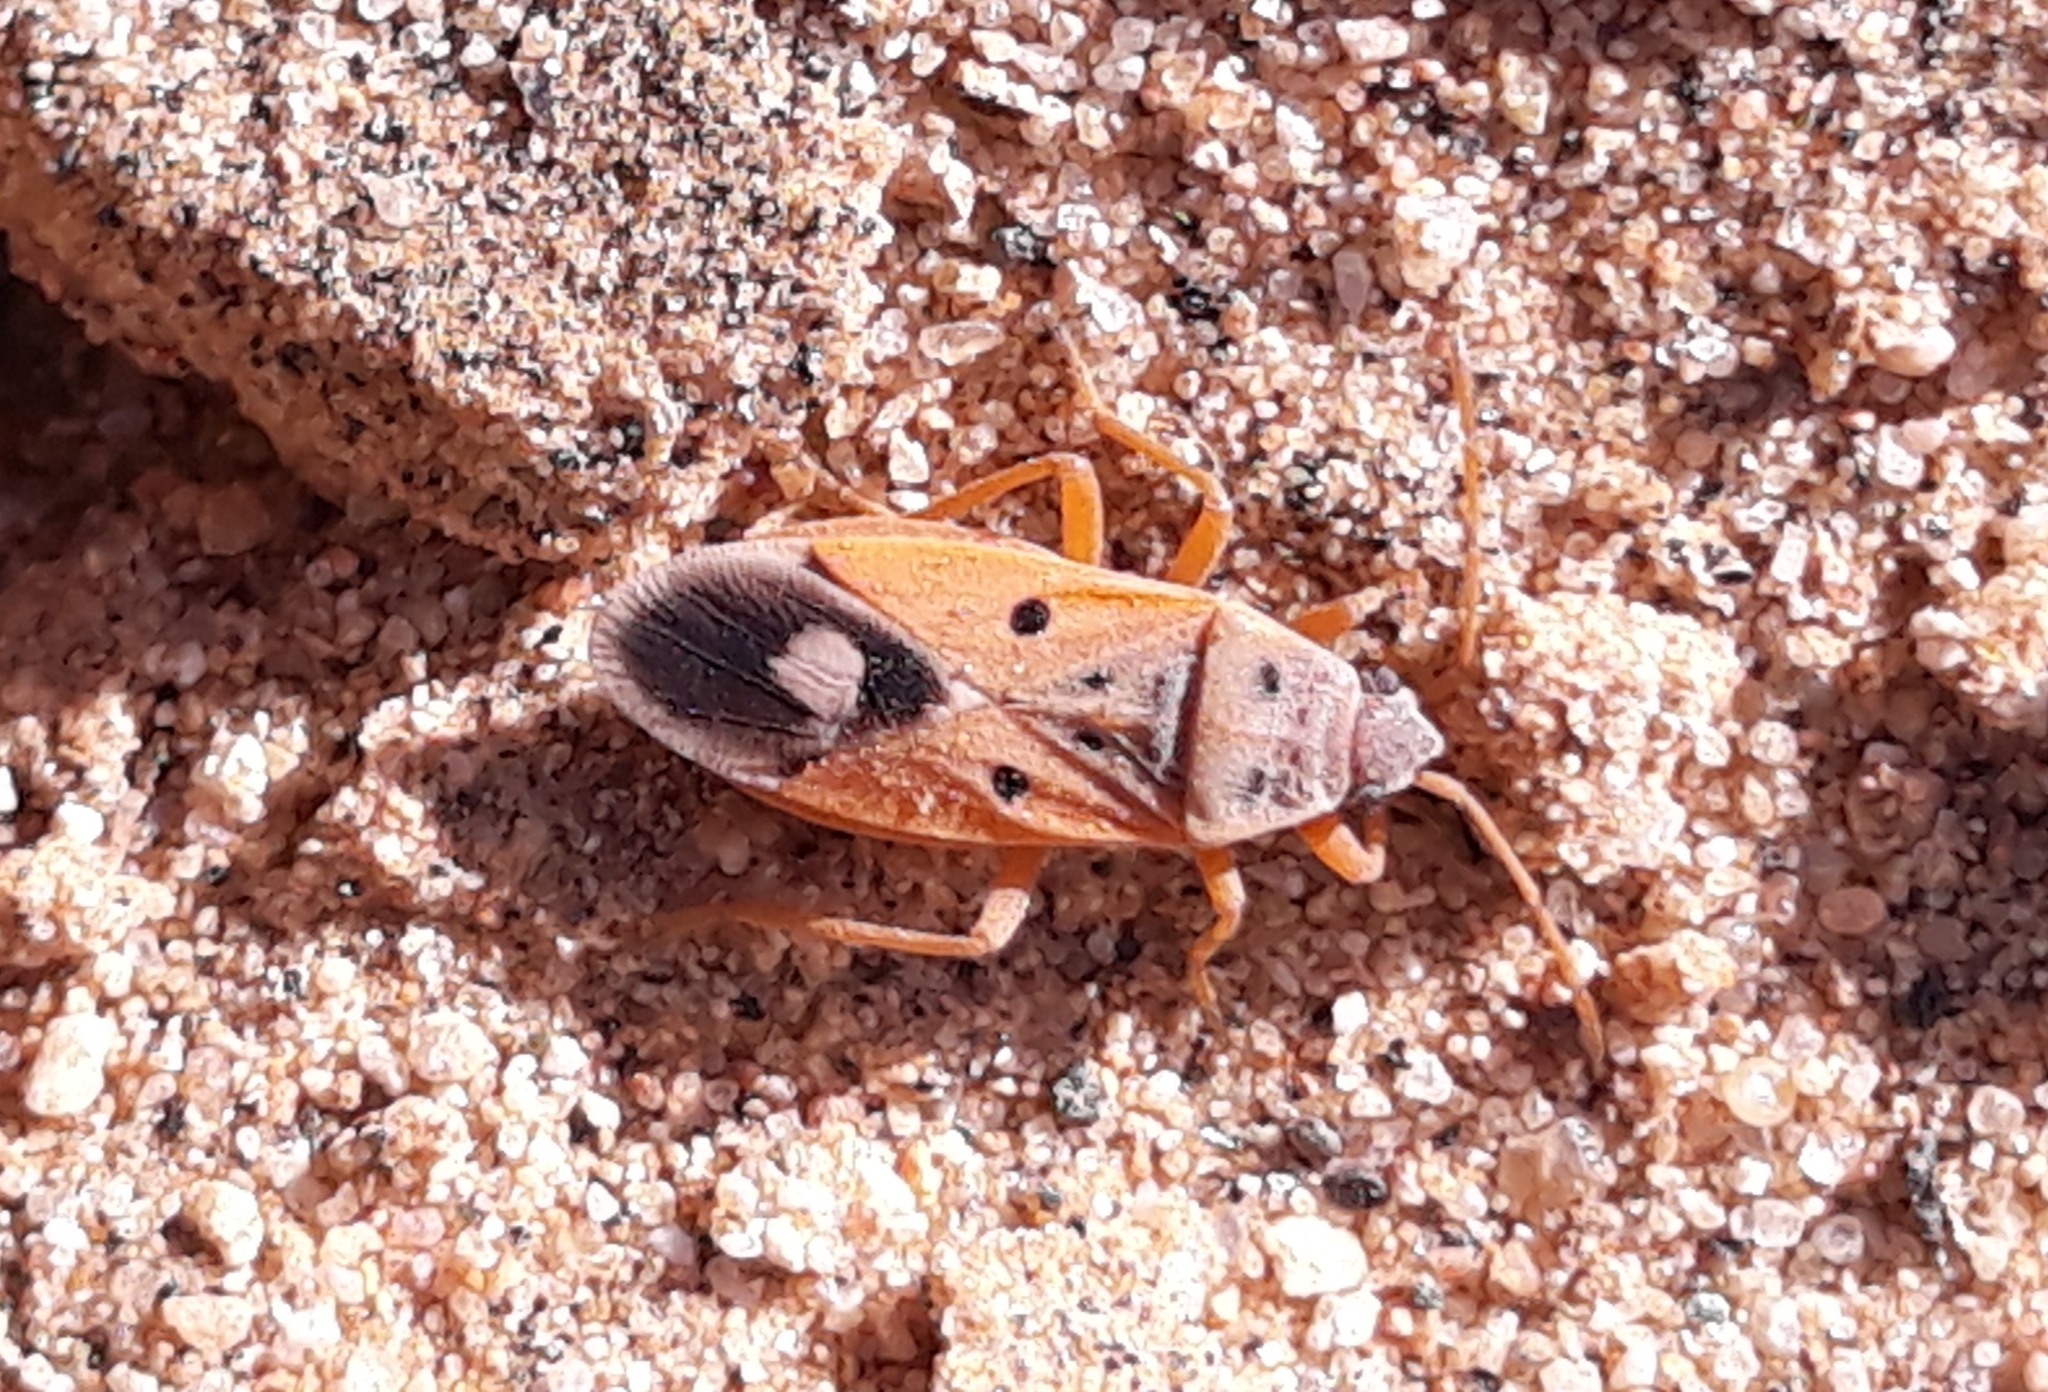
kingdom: Animalia
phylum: Arthropoda
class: Insecta
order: Hemiptera
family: Lygaeidae
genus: Cosmopleurus
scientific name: Cosmopleurus fulvipes
